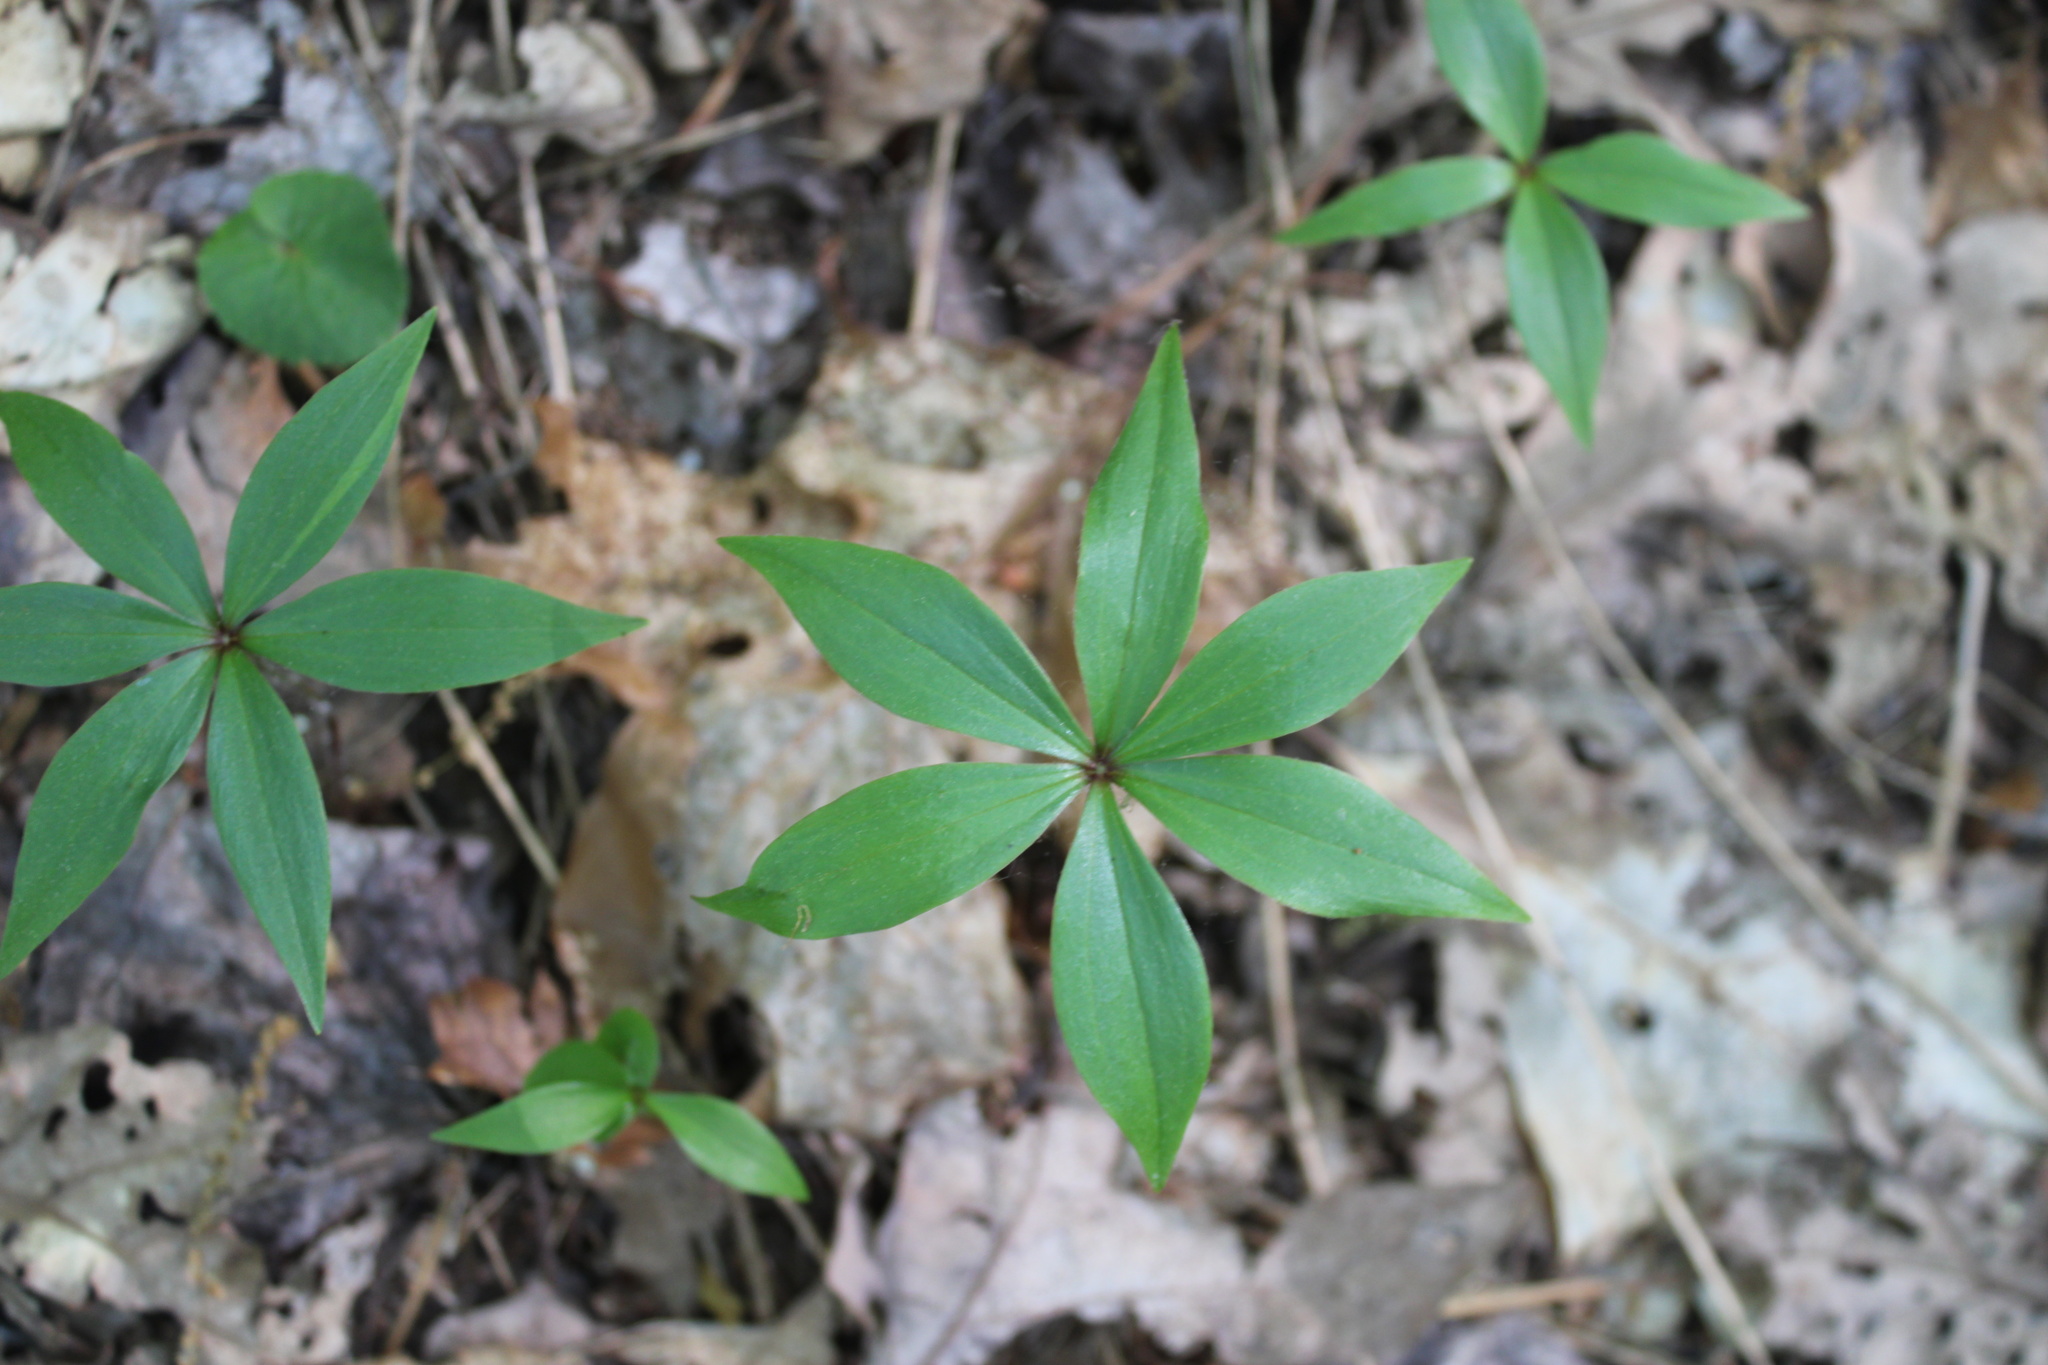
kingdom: Plantae
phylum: Tracheophyta
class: Liliopsida
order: Liliales
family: Liliaceae
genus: Medeola
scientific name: Medeola virginiana
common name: Indian cucumber-root
